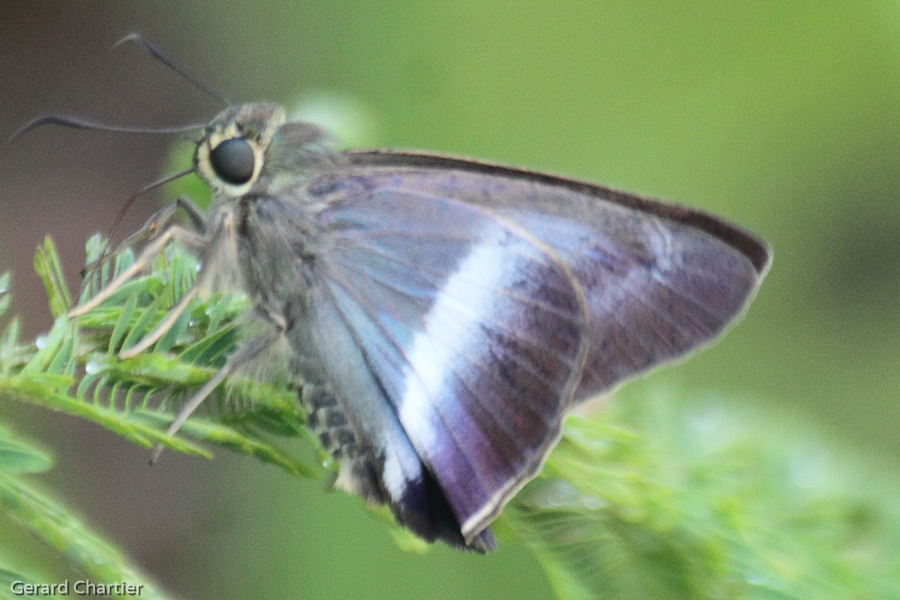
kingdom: Animalia
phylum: Arthropoda
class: Insecta
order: Lepidoptera
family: Hesperiidae
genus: Hasora
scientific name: Hasora proxissima
